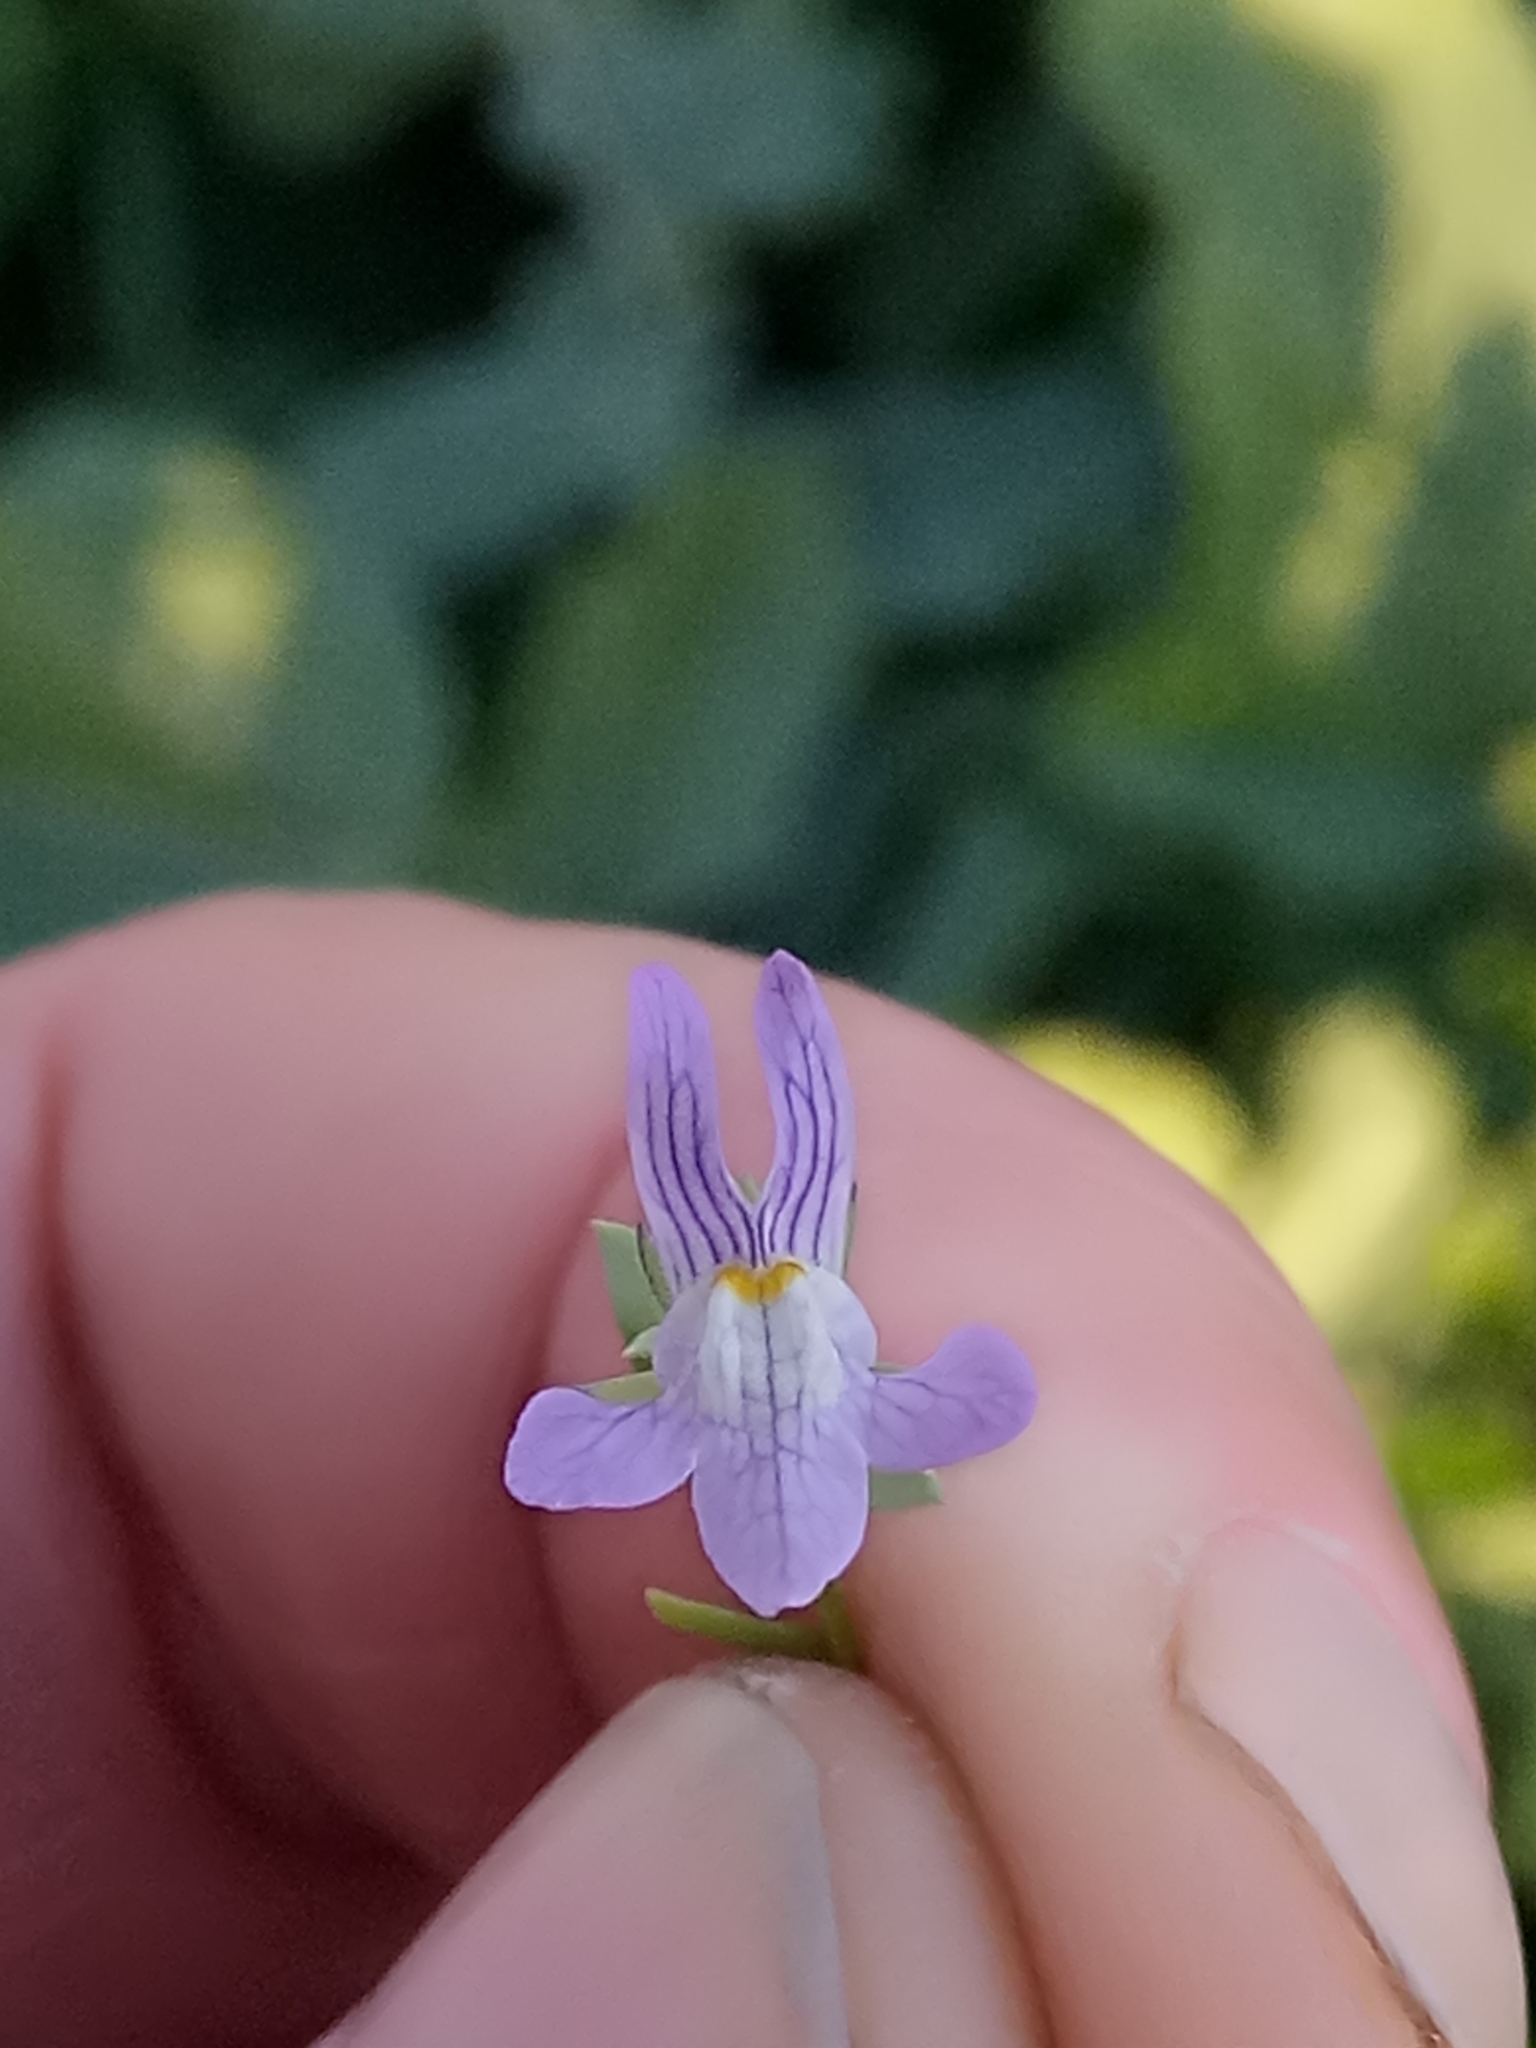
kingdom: Plantae
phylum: Tracheophyta
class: Magnoliopsida
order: Lamiales
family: Plantaginaceae
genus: Linaria
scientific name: Linaria reflexa
